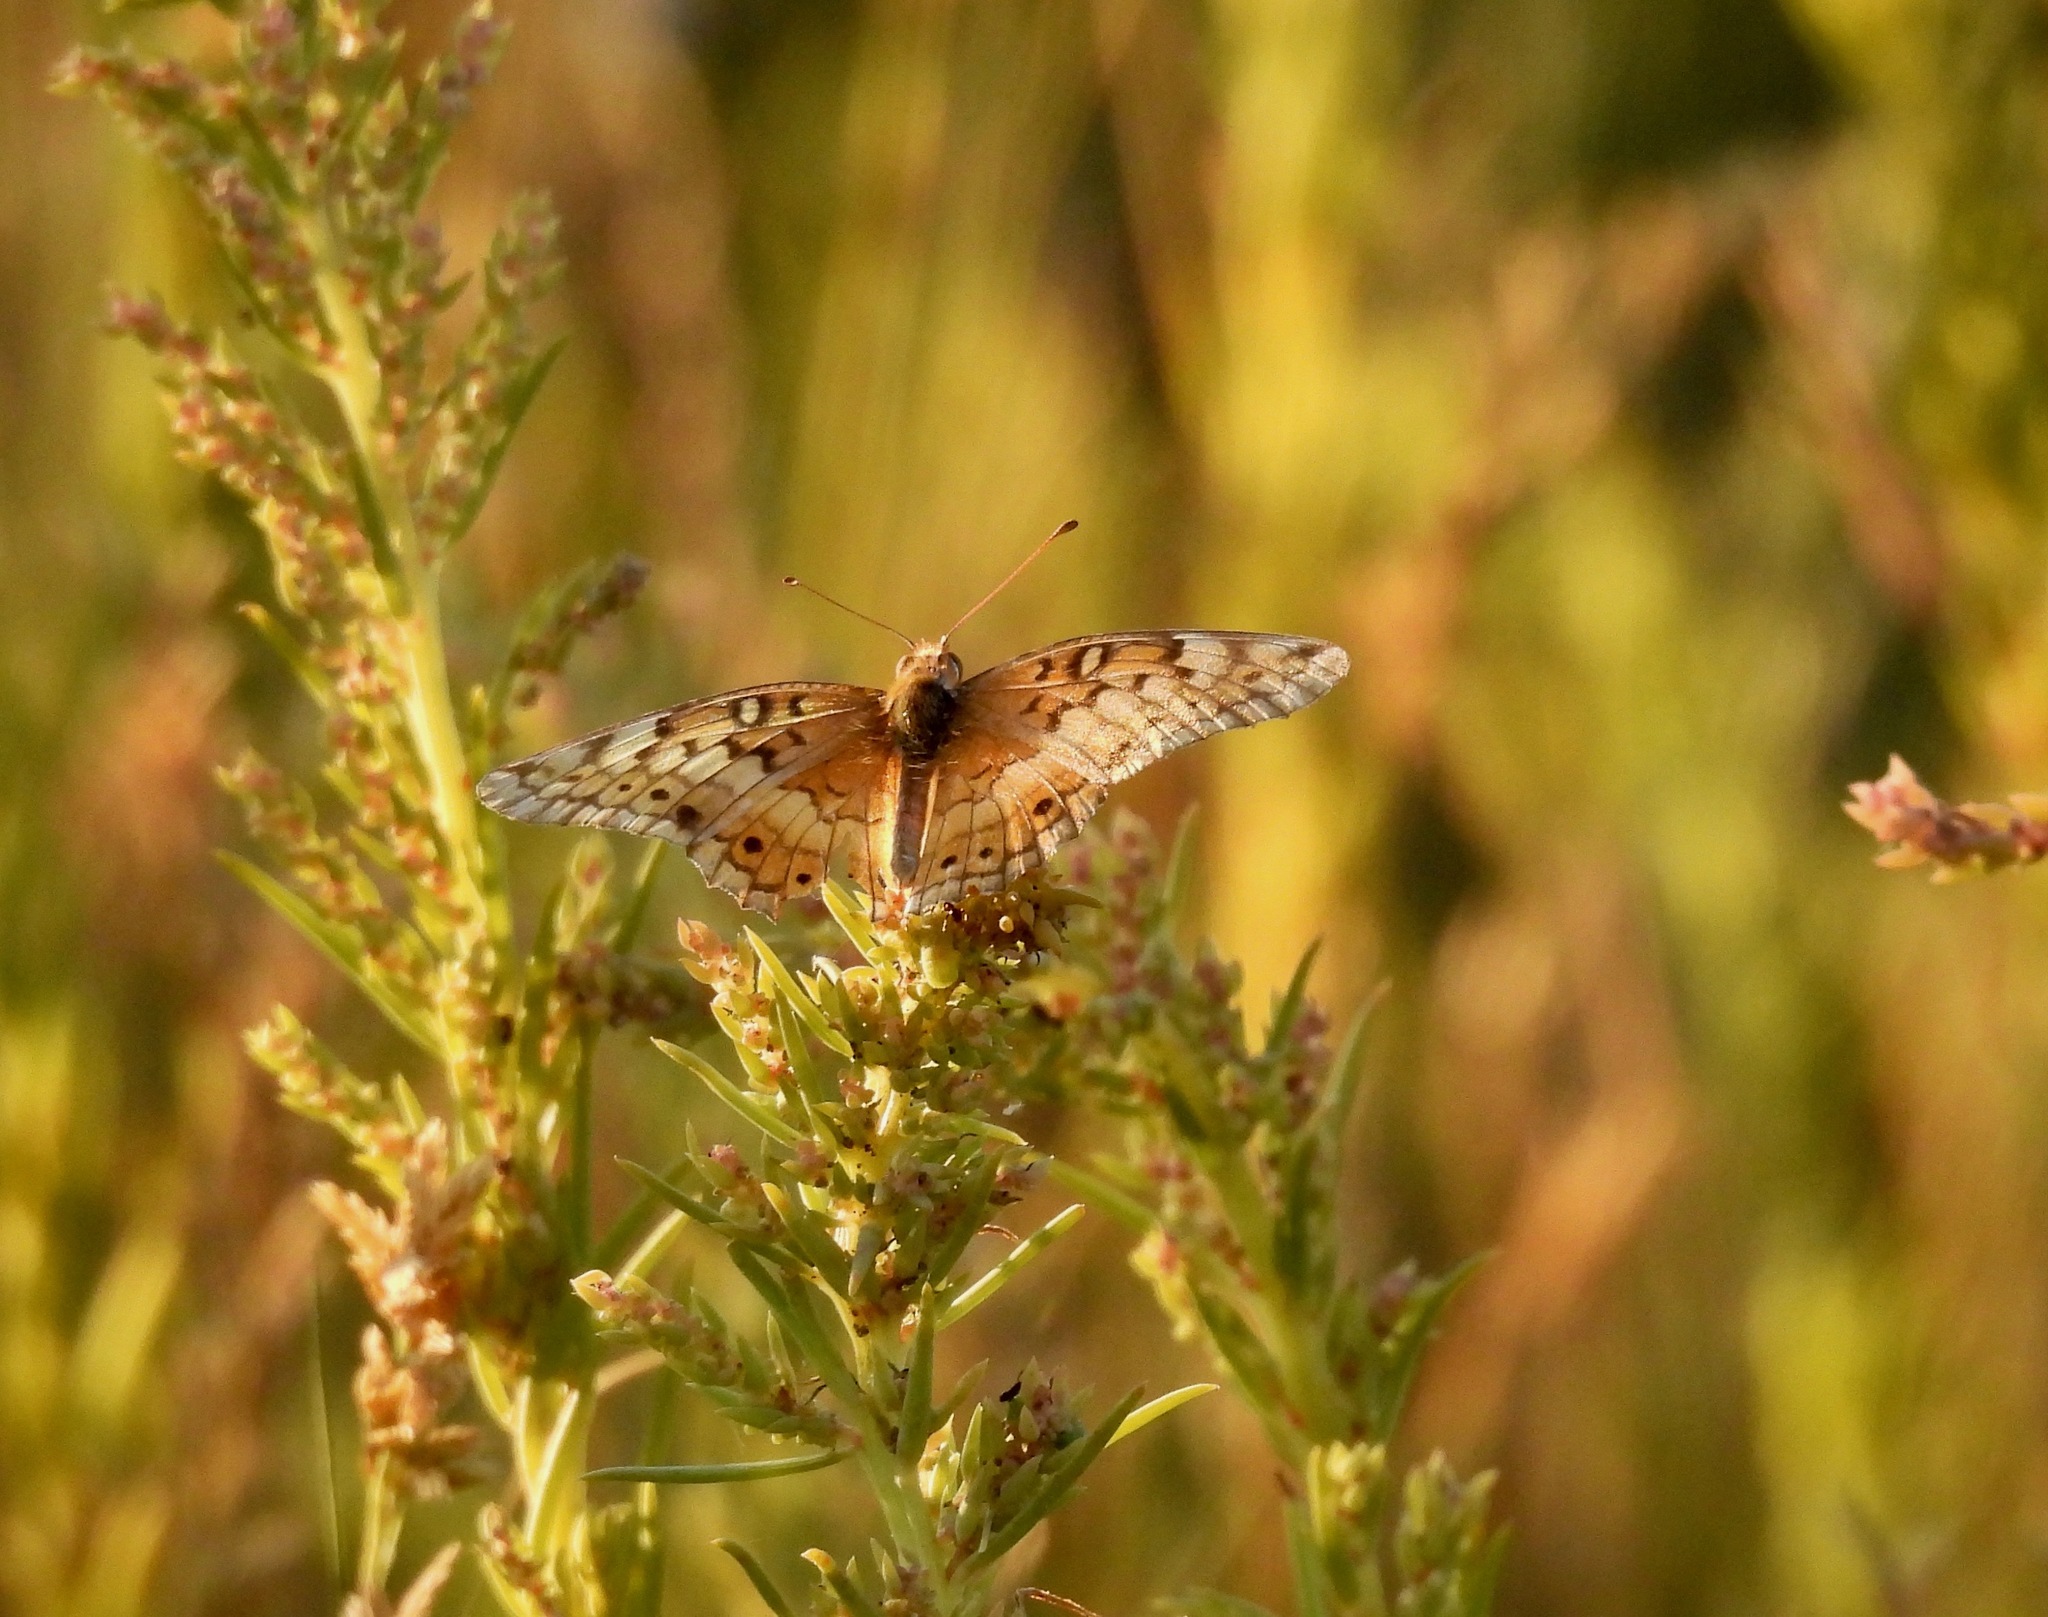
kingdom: Animalia
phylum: Arthropoda
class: Insecta
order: Lepidoptera
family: Nymphalidae
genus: Euptoieta
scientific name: Euptoieta claudia
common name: Variegated fritillary
